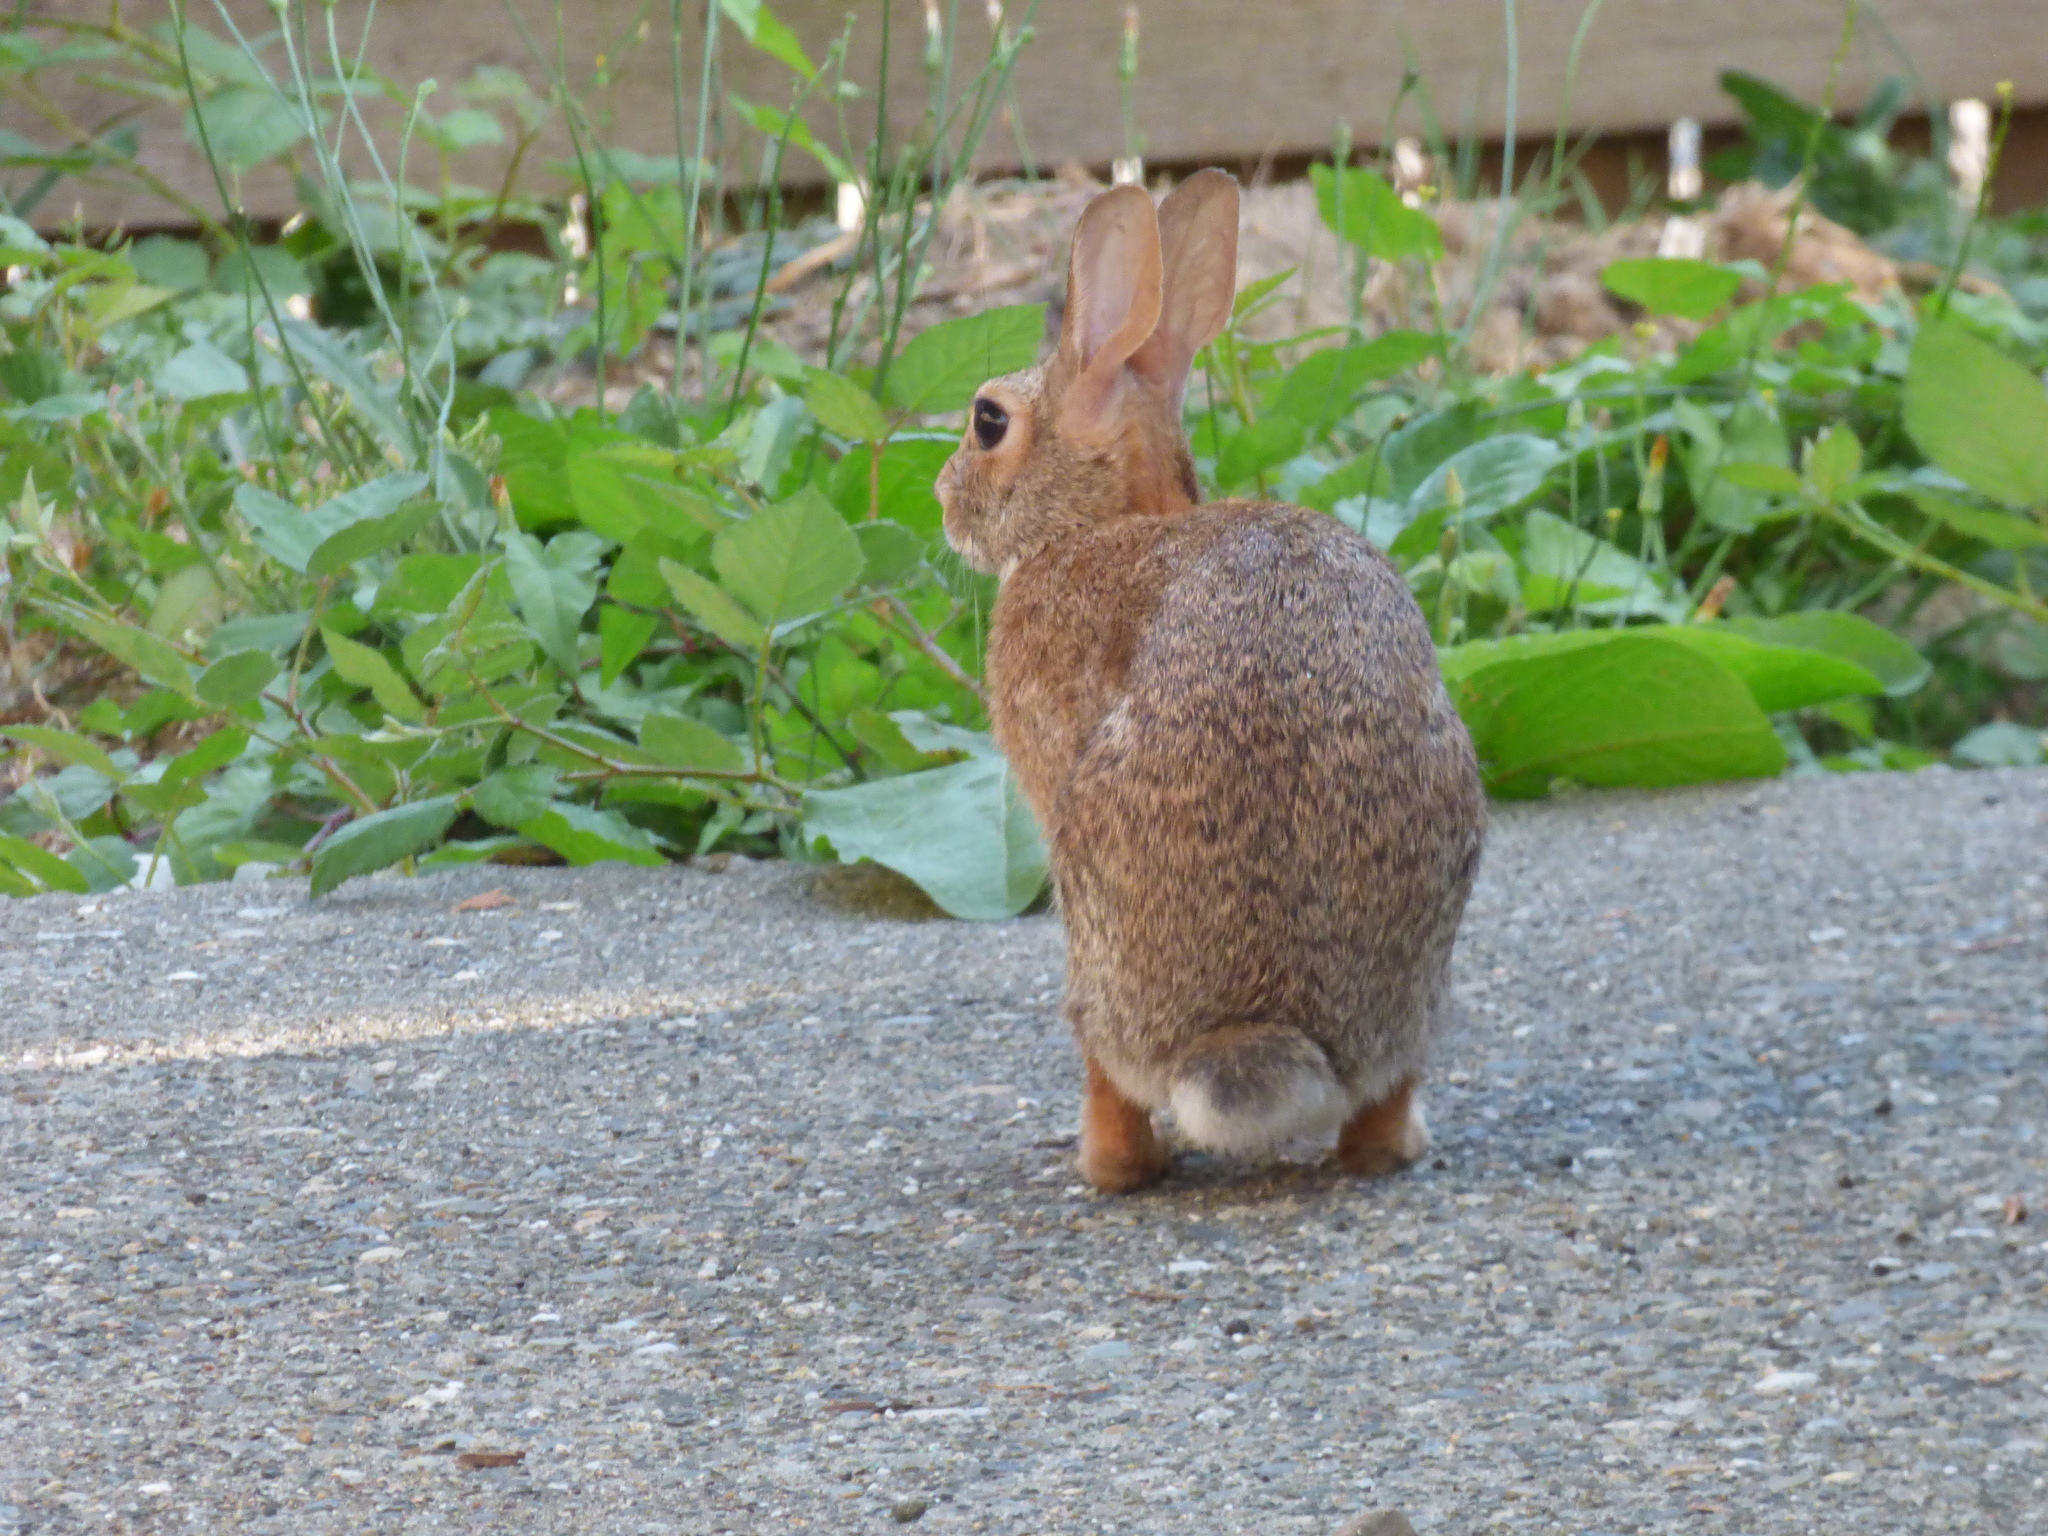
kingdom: Animalia
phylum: Chordata
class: Mammalia
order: Lagomorpha
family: Leporidae
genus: Sylvilagus
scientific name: Sylvilagus floridanus
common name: Eastern cottontail
